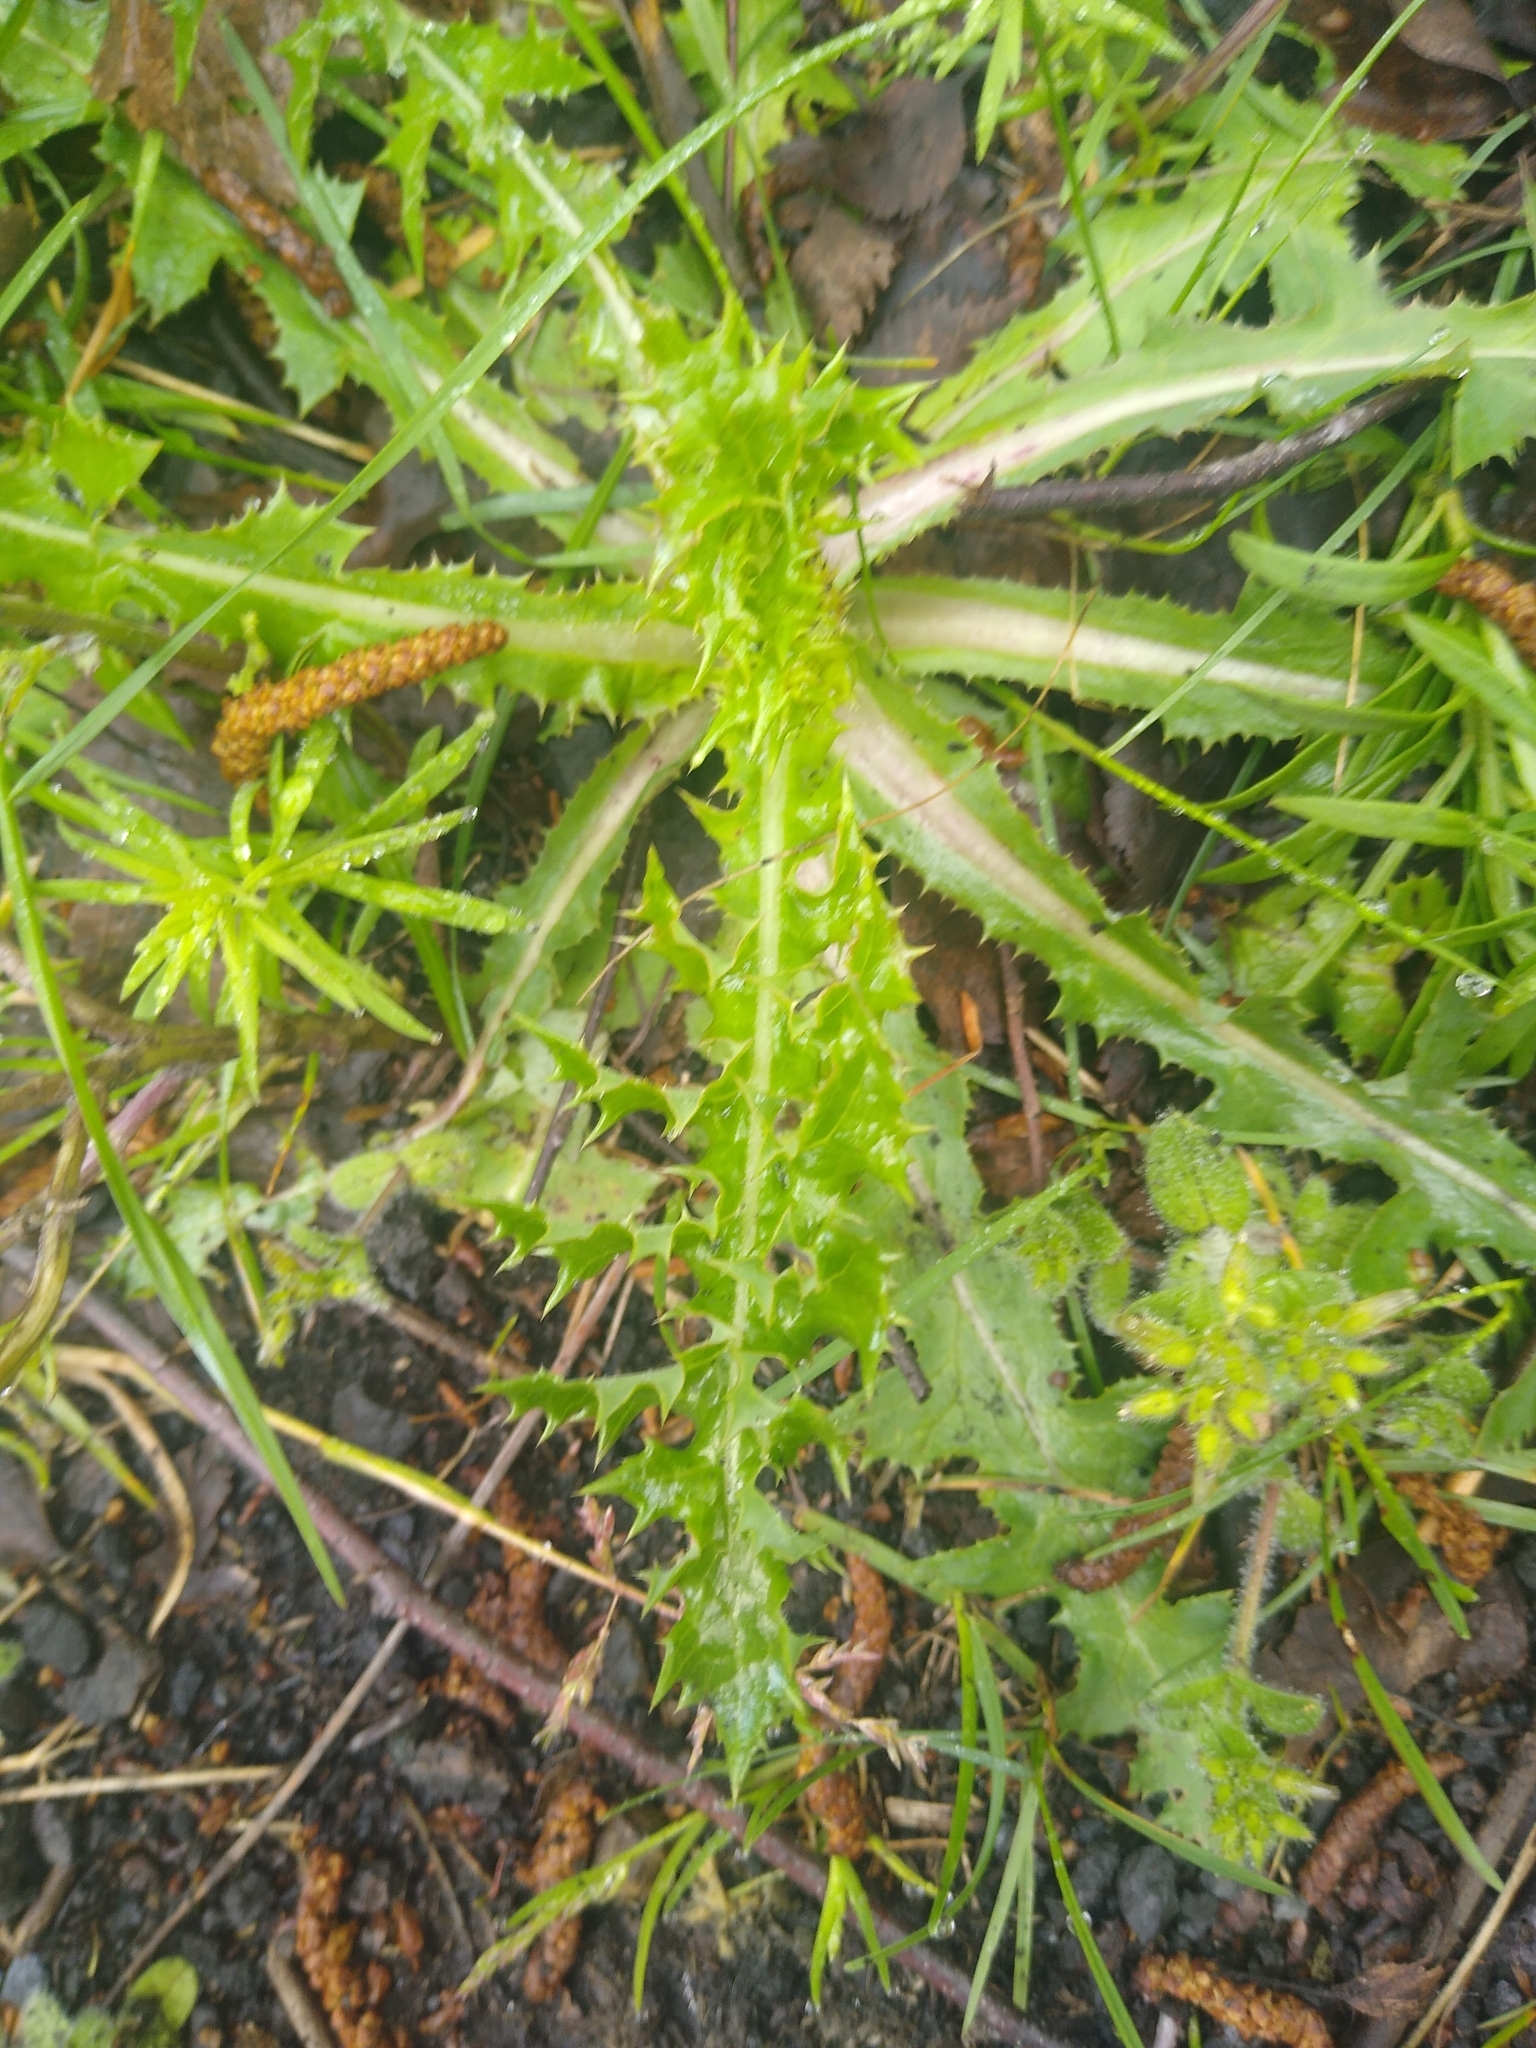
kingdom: Plantae
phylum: Tracheophyta
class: Magnoliopsida
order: Asterales
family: Asteraceae
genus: Sonchus
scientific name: Sonchus asper
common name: Prickly sow-thistle
